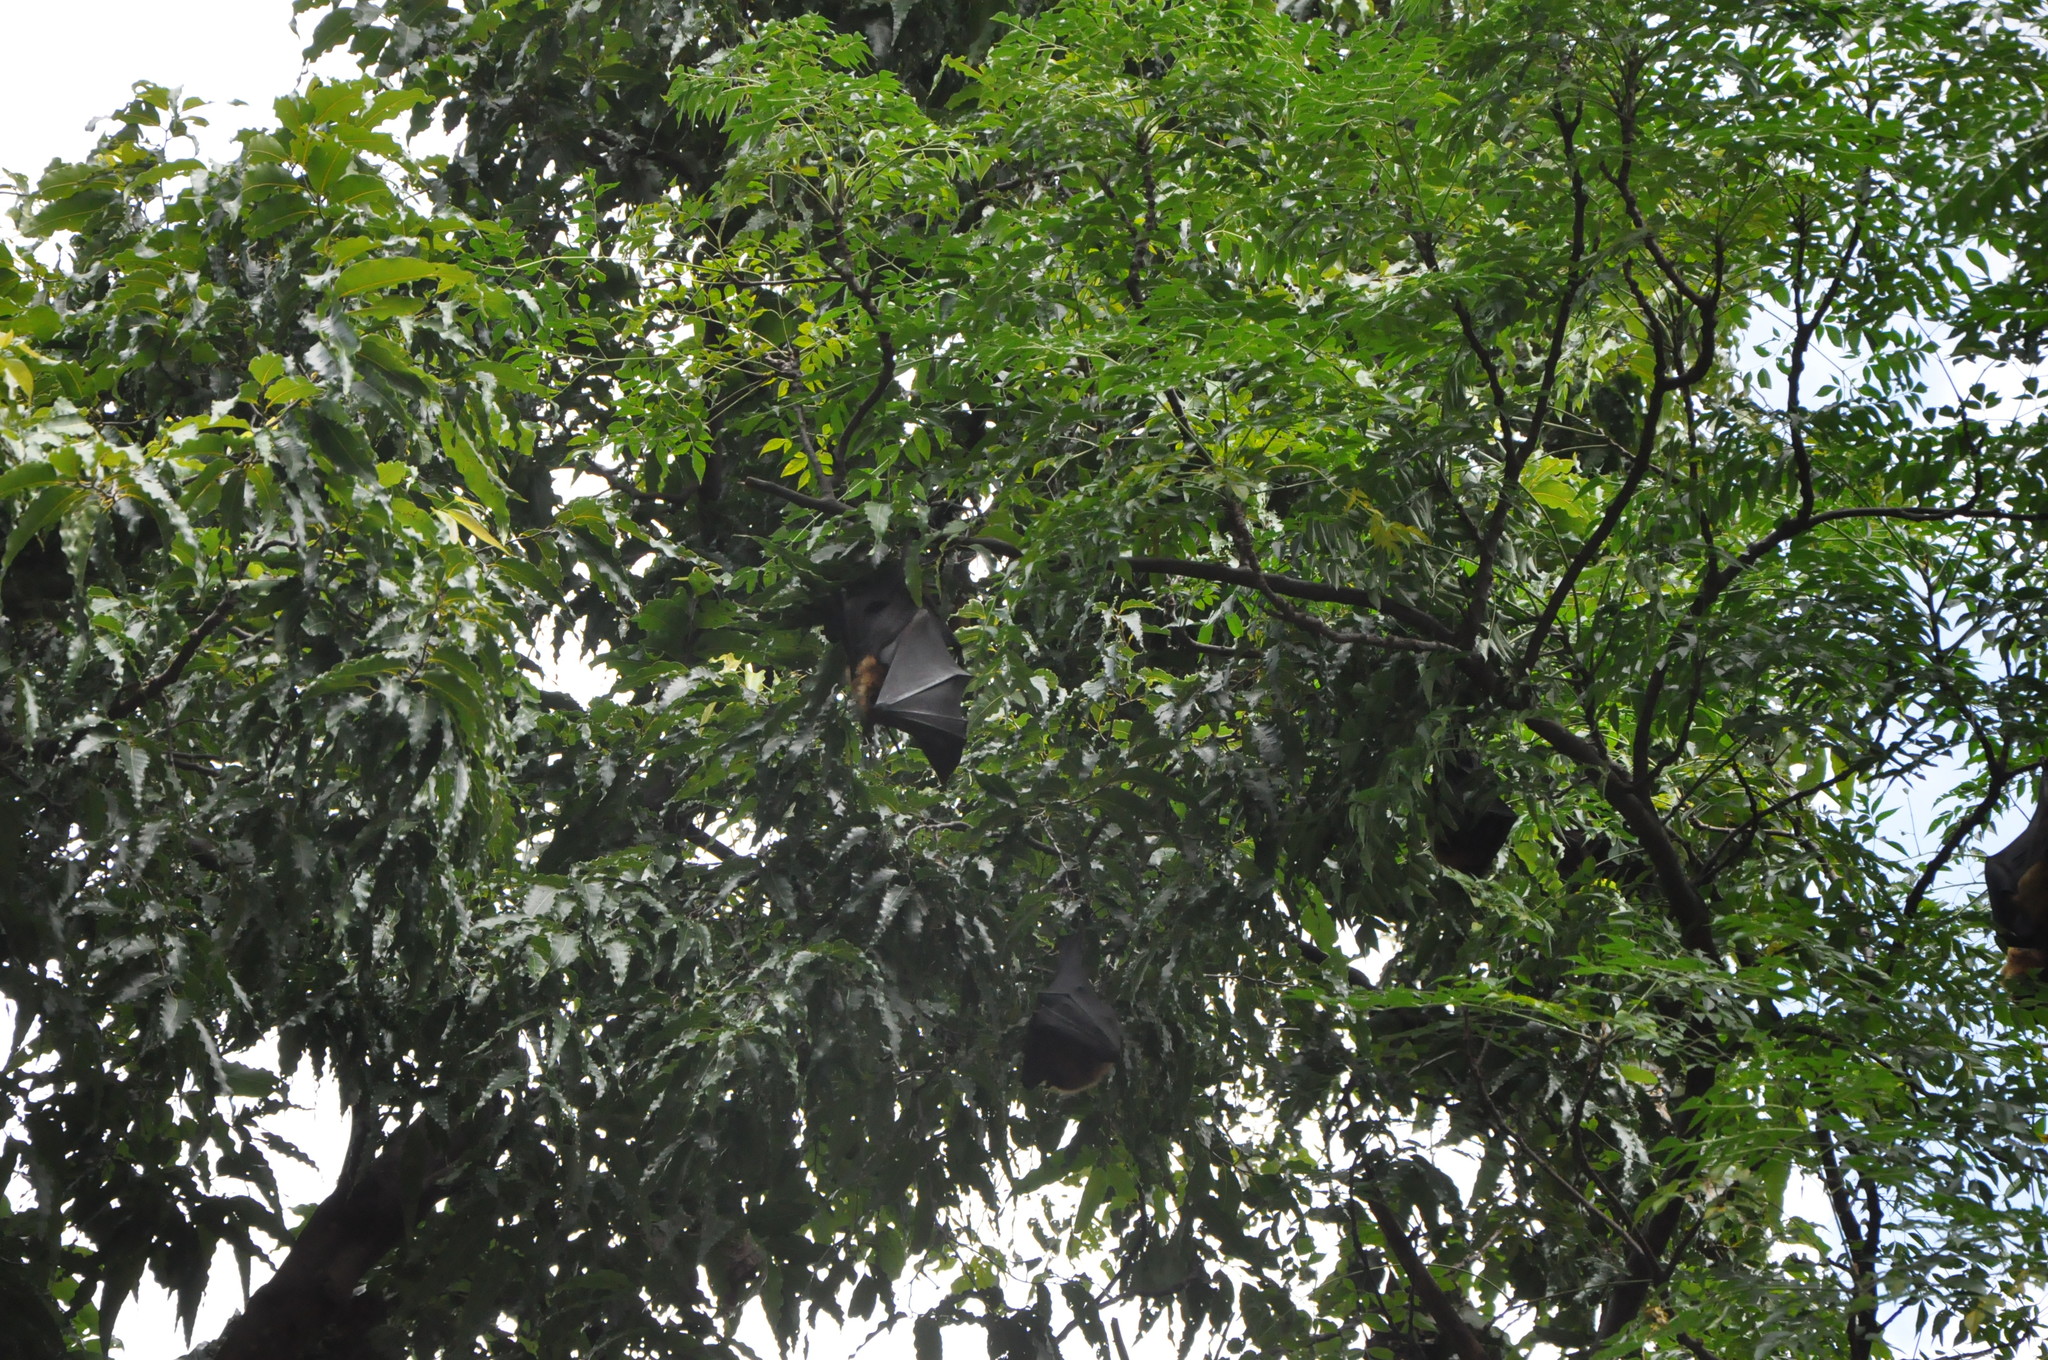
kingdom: Animalia
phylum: Chordata
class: Mammalia
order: Chiroptera
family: Pteropodidae
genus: Pteropus
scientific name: Pteropus vampyrus
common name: Large flying fox
